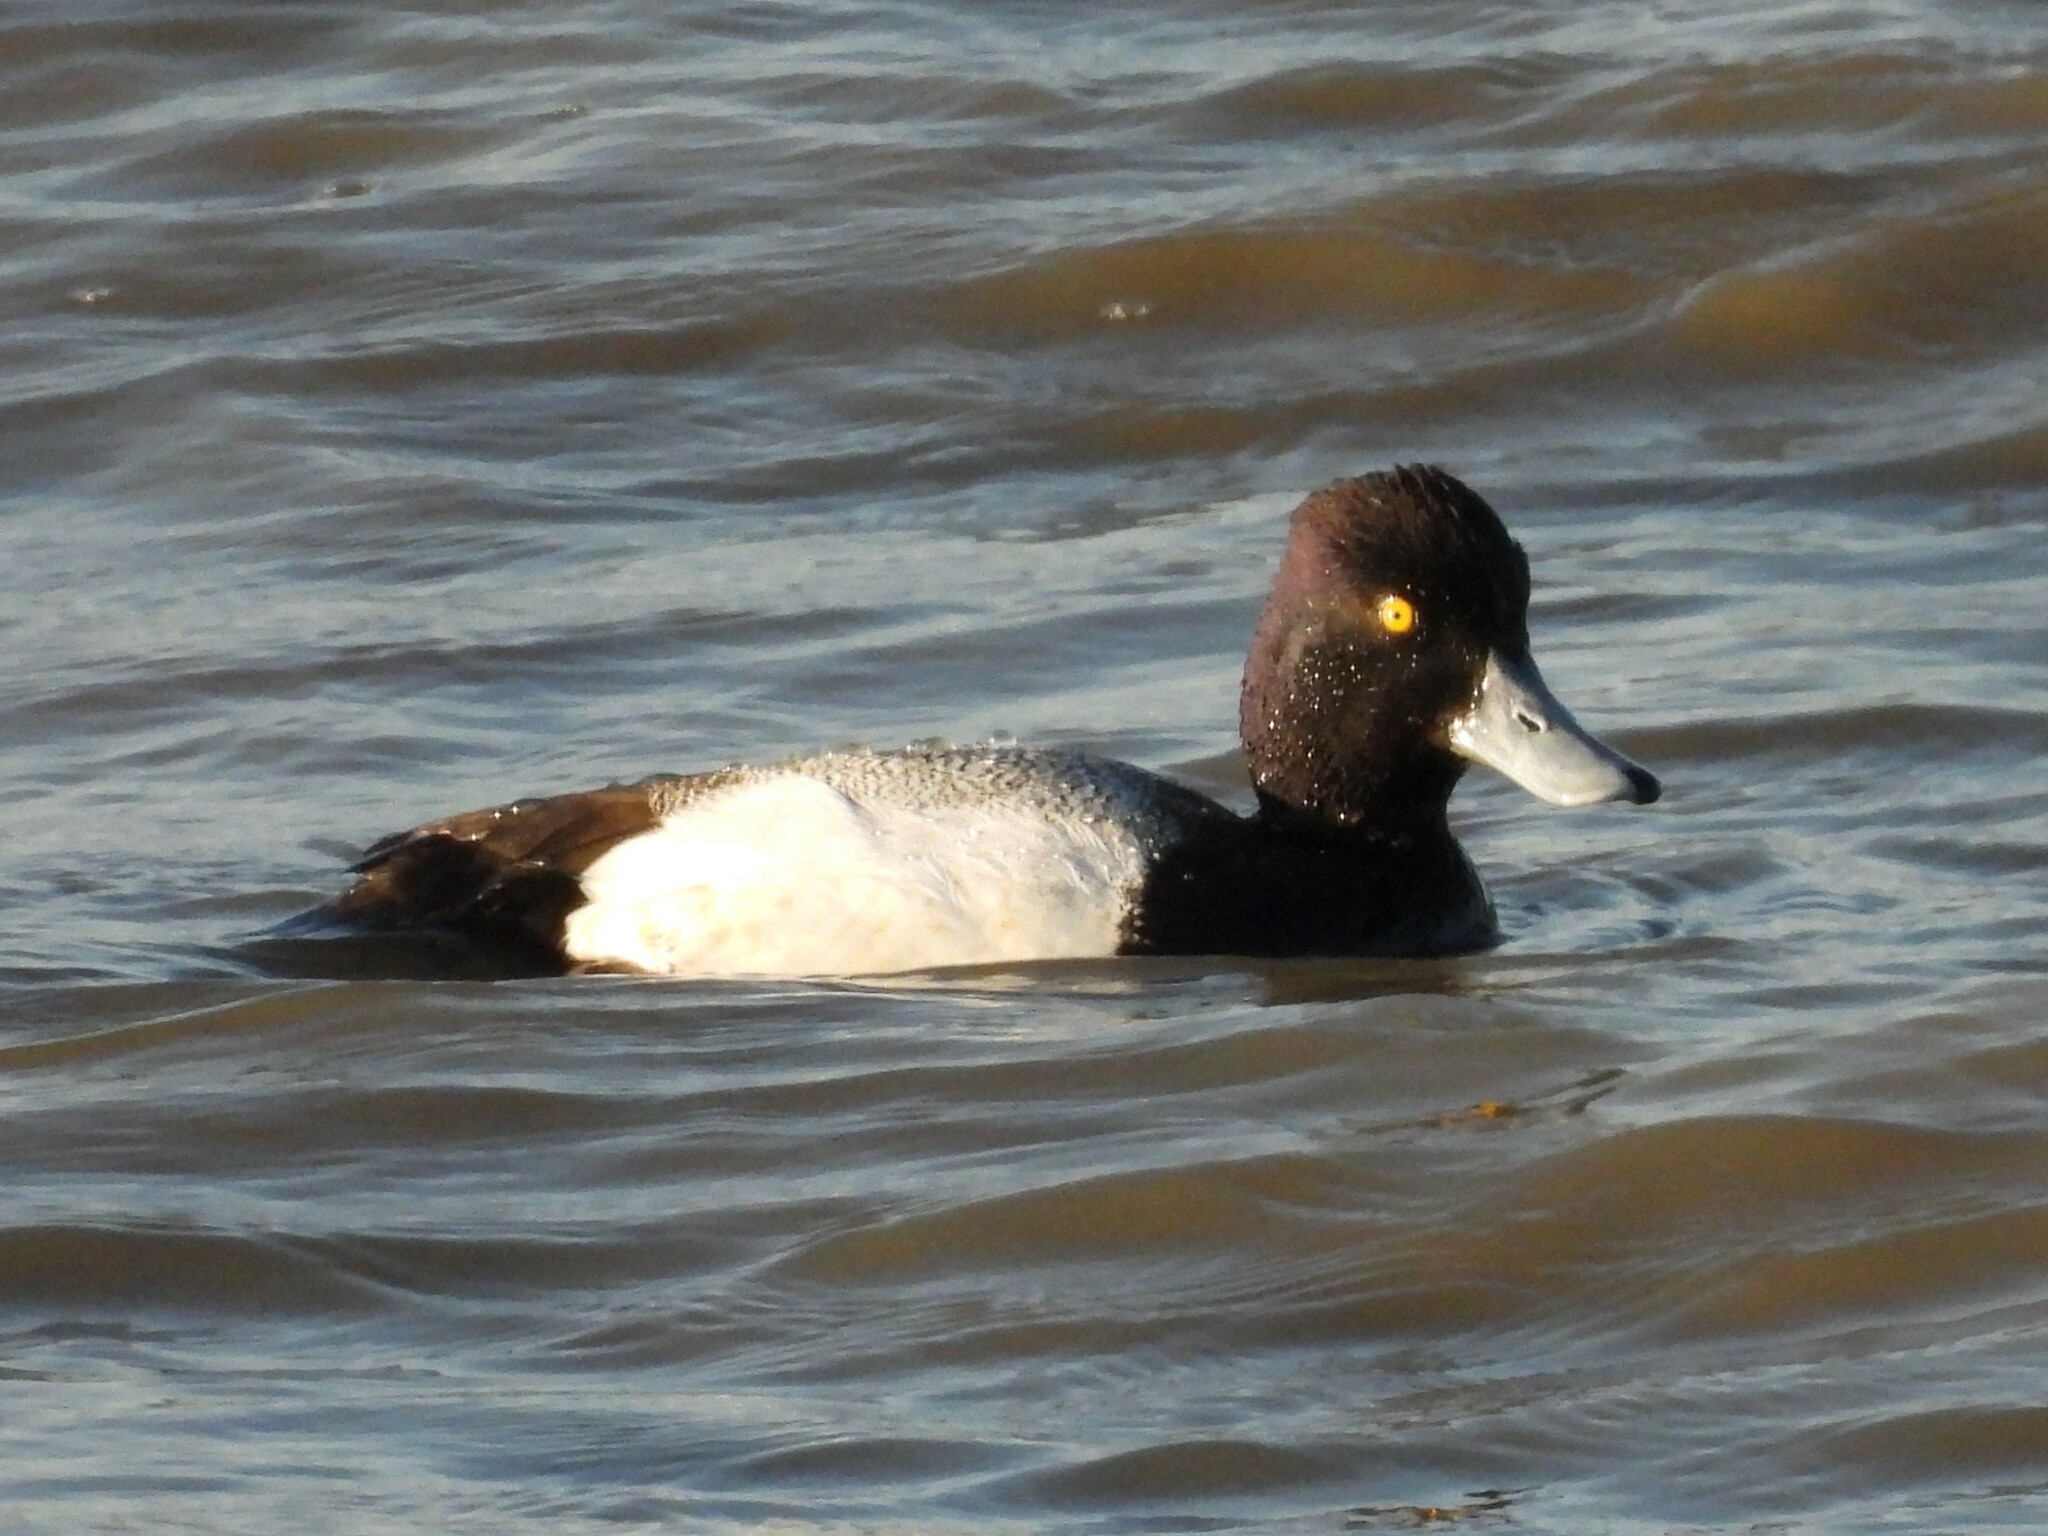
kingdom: Animalia
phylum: Chordata
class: Aves
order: Anseriformes
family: Anatidae
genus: Aythya
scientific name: Aythya affinis
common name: Lesser scaup
